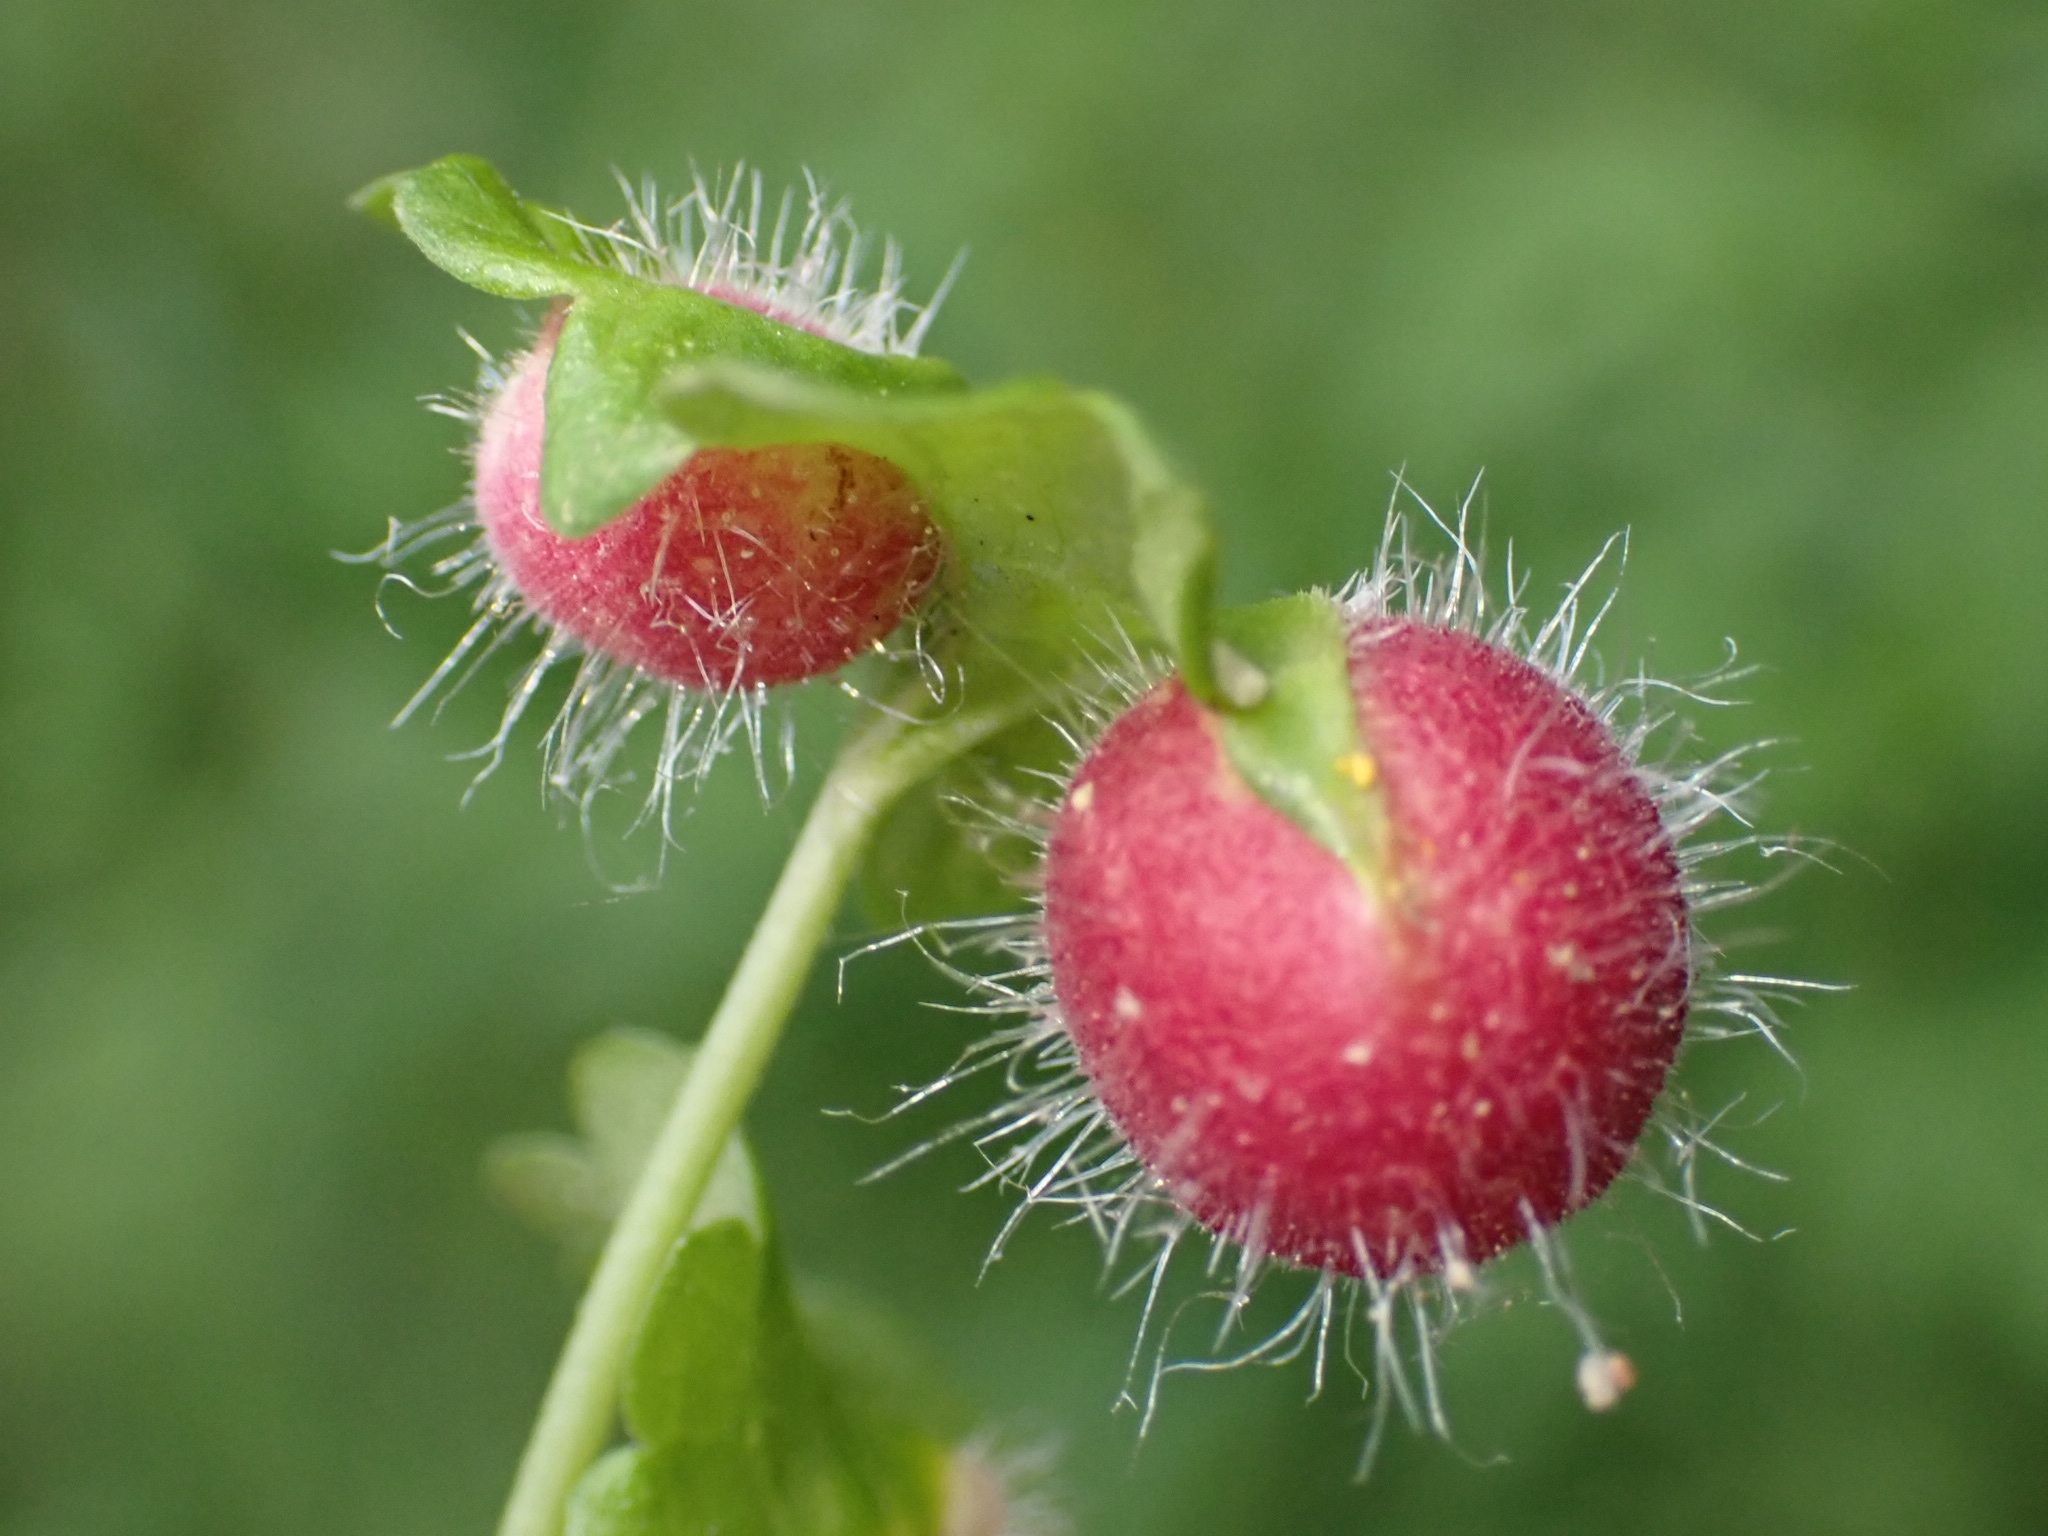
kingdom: Animalia
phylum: Arthropoda
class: Insecta
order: Hymenoptera
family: Cynipidae
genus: Liposthenes
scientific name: Liposthenes glechomae
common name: Gall wasp
